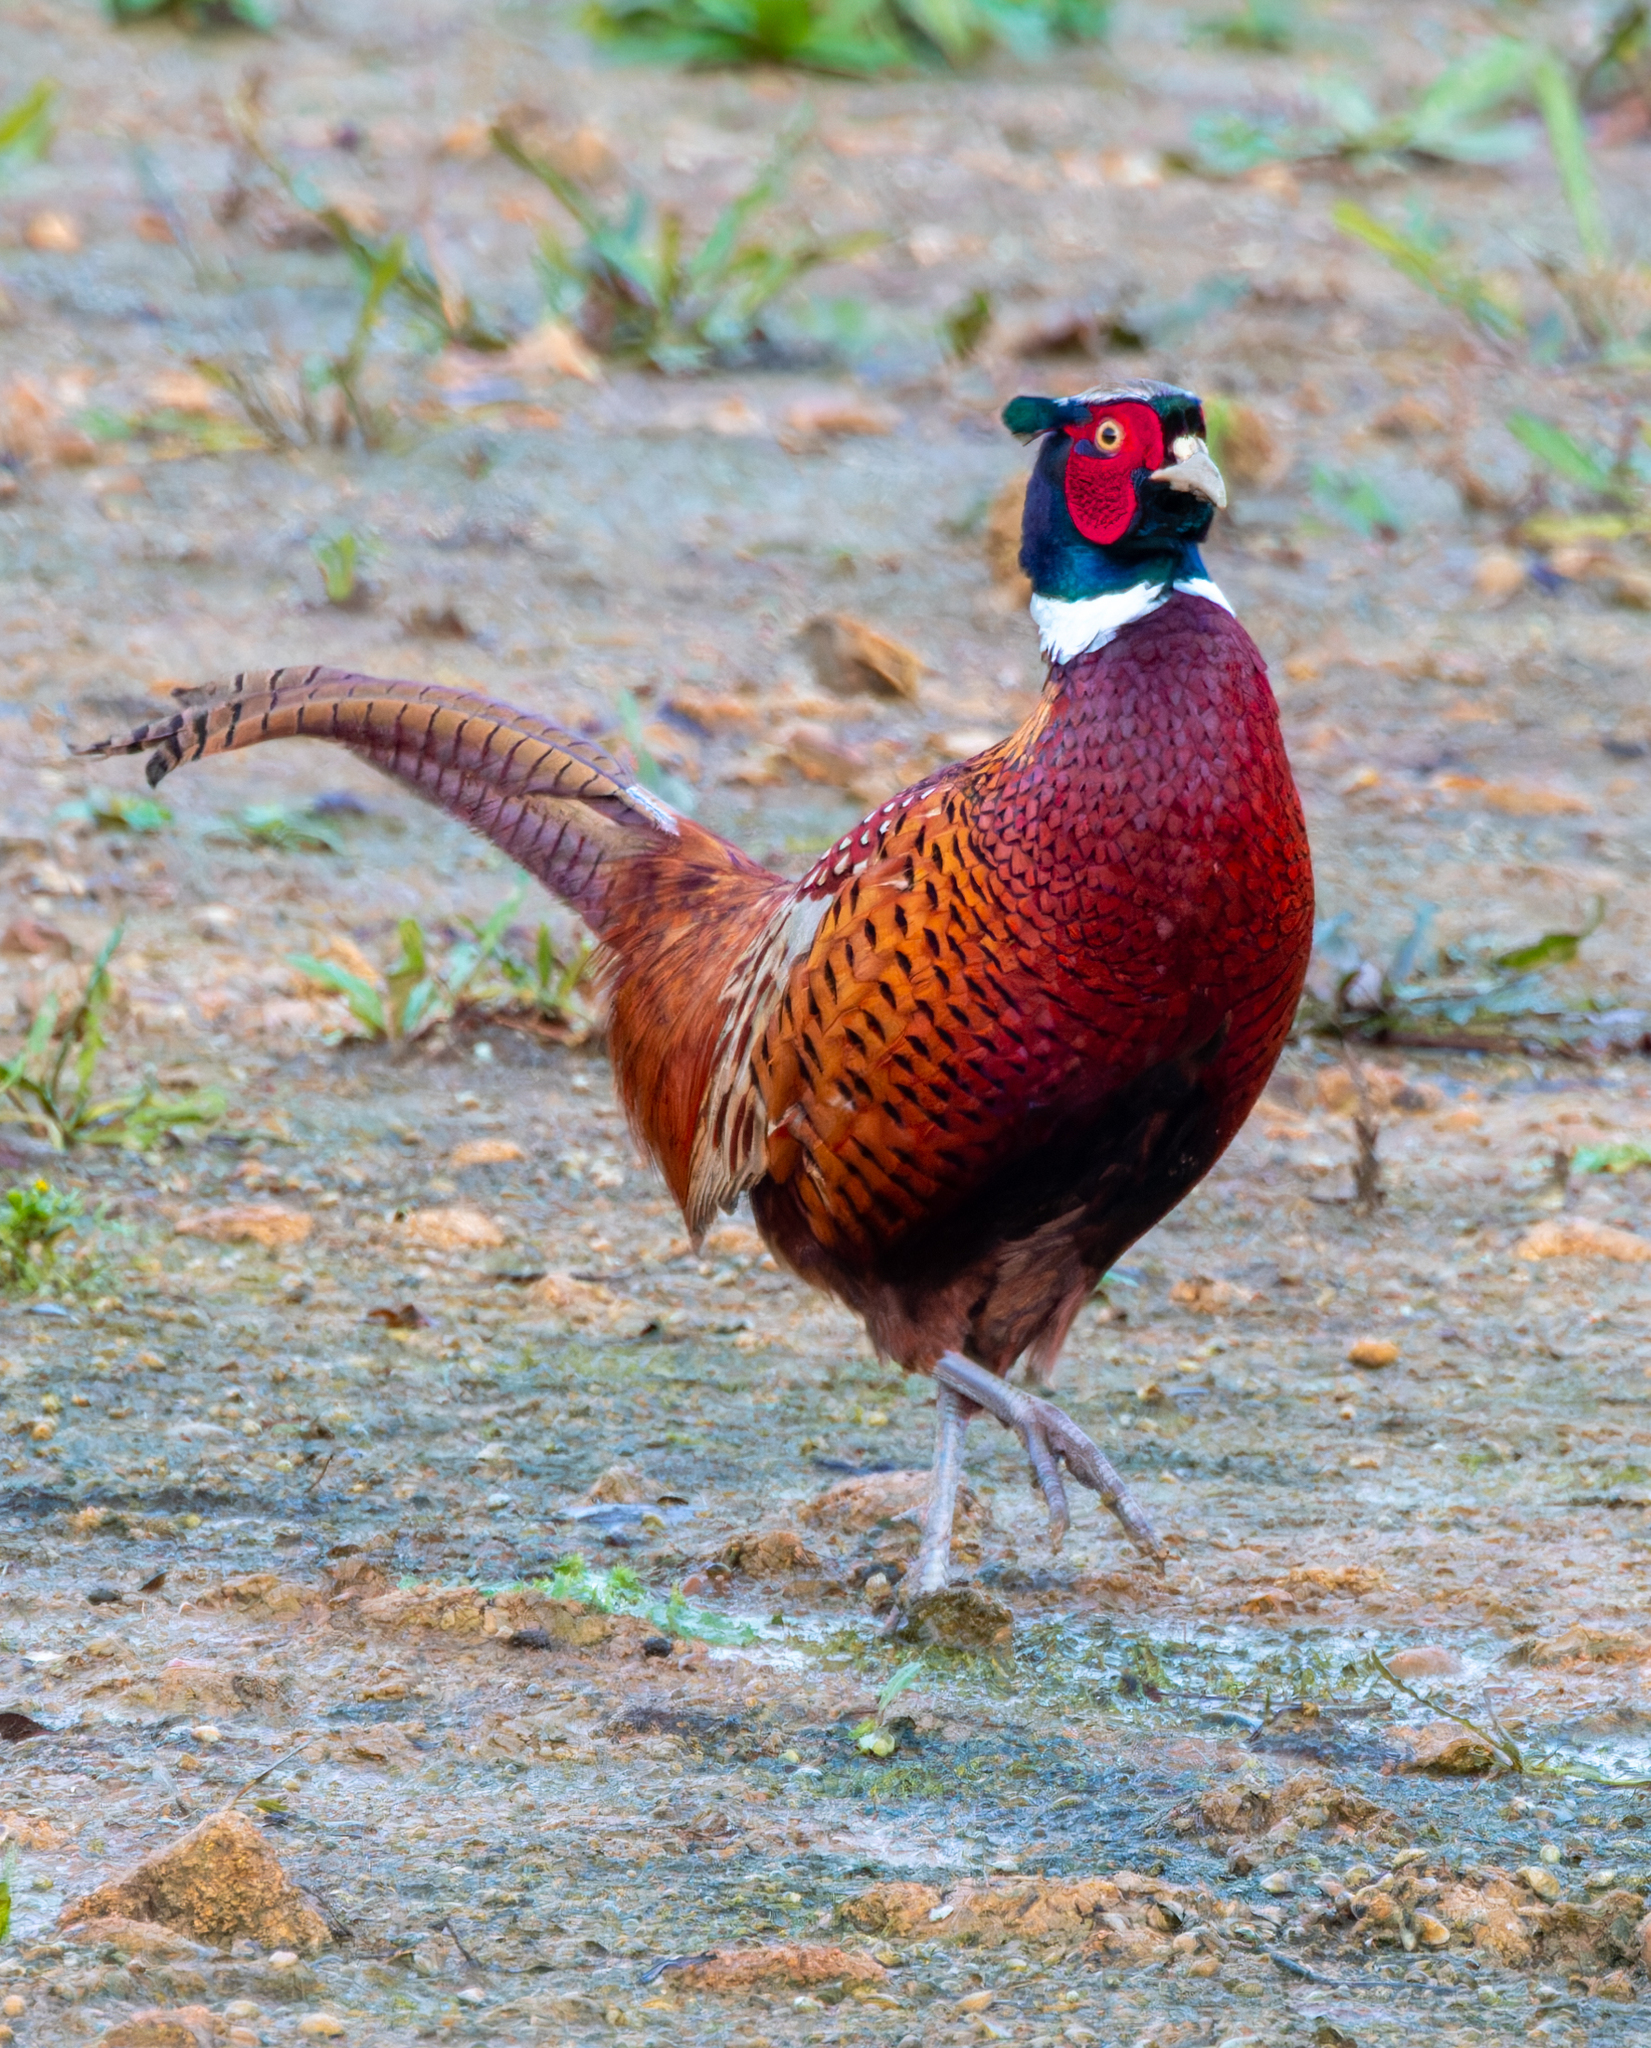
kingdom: Animalia
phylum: Chordata
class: Aves
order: Galliformes
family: Phasianidae
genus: Phasianus
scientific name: Phasianus colchicus
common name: Common pheasant
